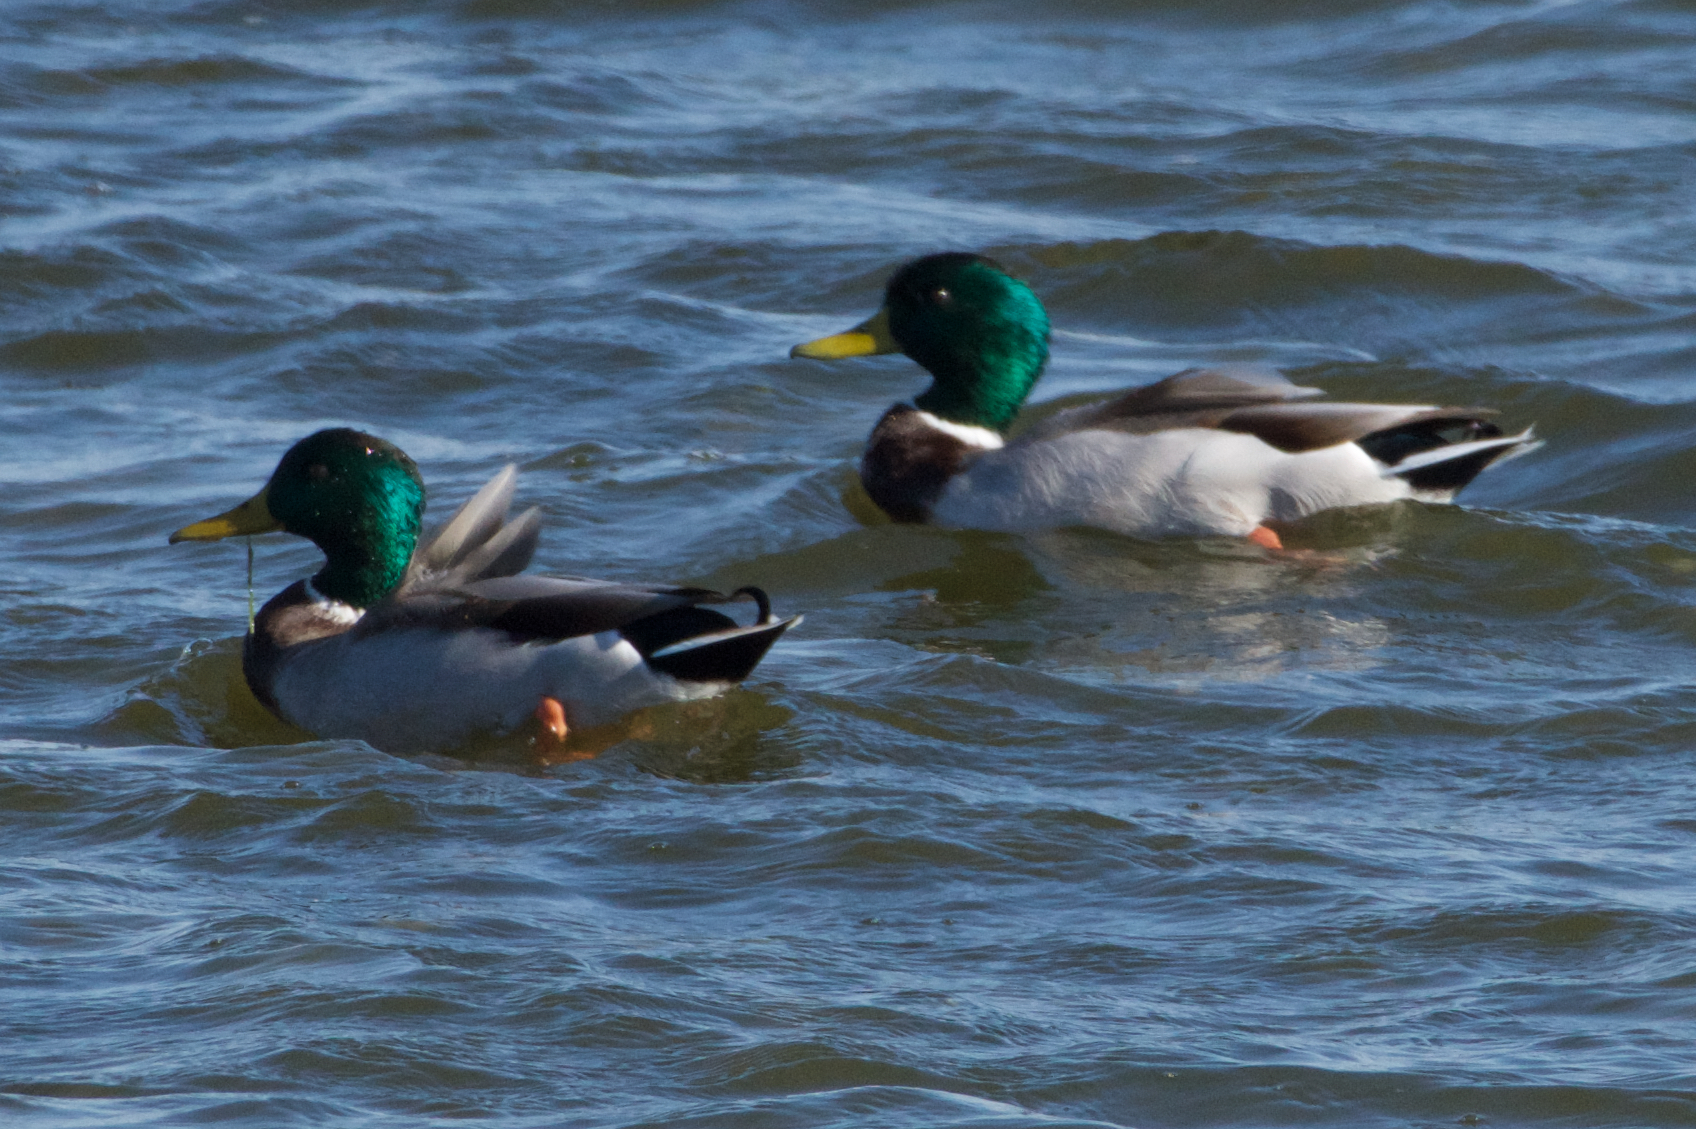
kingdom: Animalia
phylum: Chordata
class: Aves
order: Anseriformes
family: Anatidae
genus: Anas
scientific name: Anas platyrhynchos
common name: Mallard
